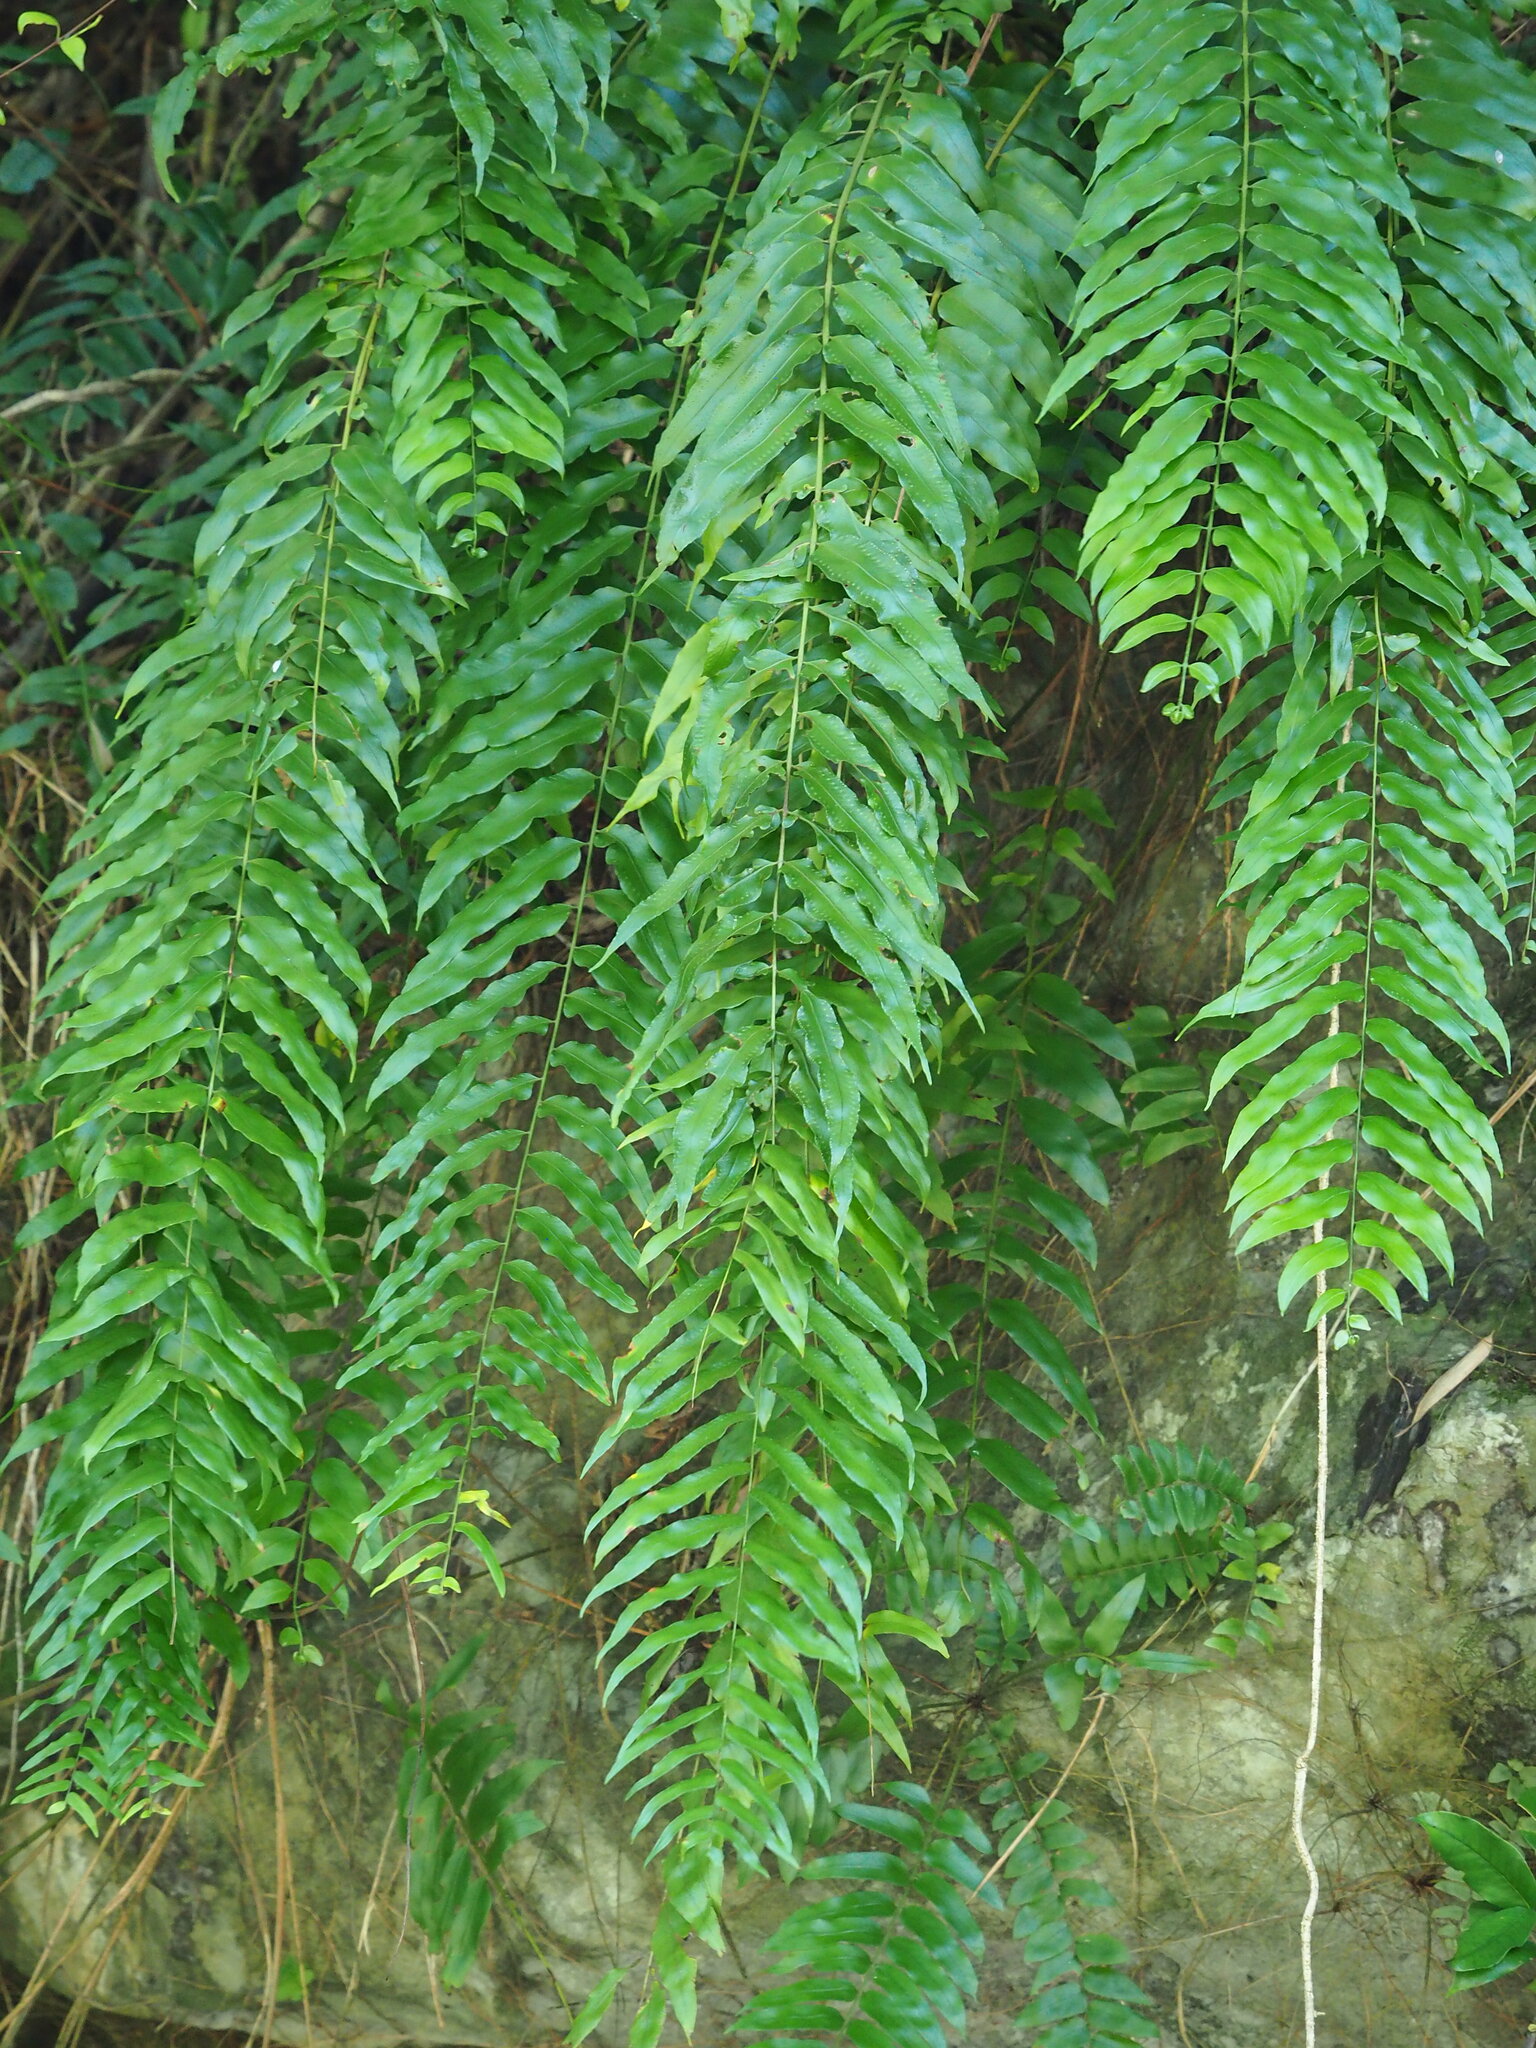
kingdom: Plantae
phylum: Tracheophyta
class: Polypodiopsida
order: Polypodiales
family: Nephrolepidaceae
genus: Nephrolepis
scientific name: Nephrolepis biserrata
